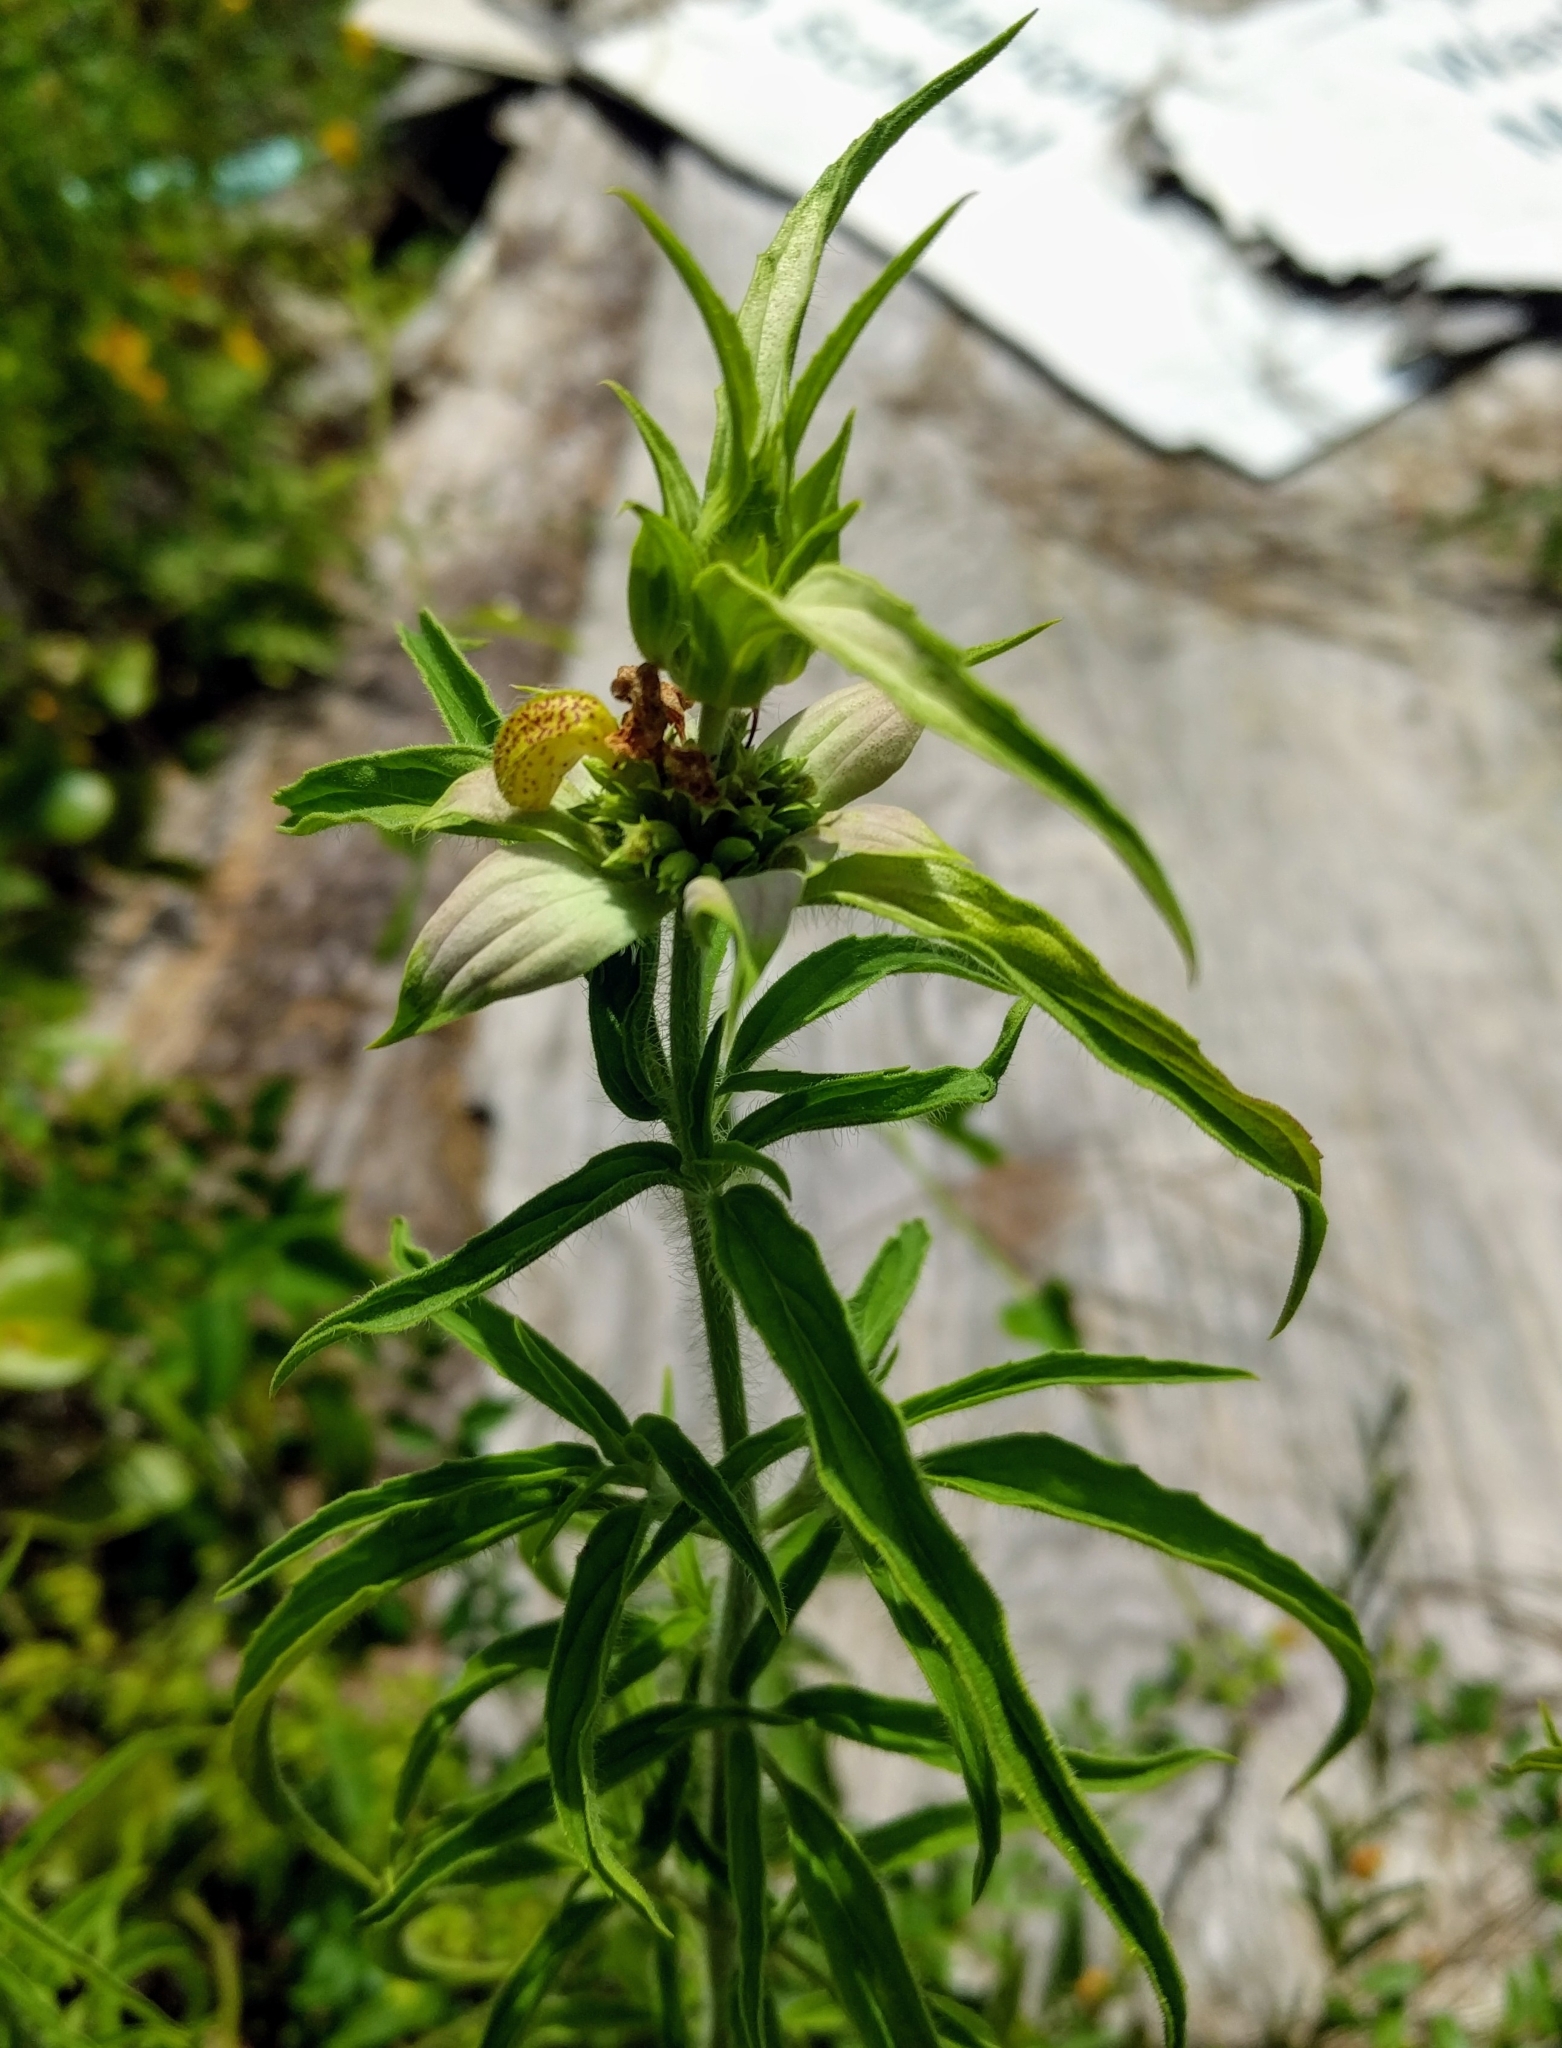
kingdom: Plantae
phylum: Tracheophyta
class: Magnoliopsida
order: Lamiales
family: Lamiaceae
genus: Monarda
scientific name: Monarda punctata
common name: Dotted monarda
